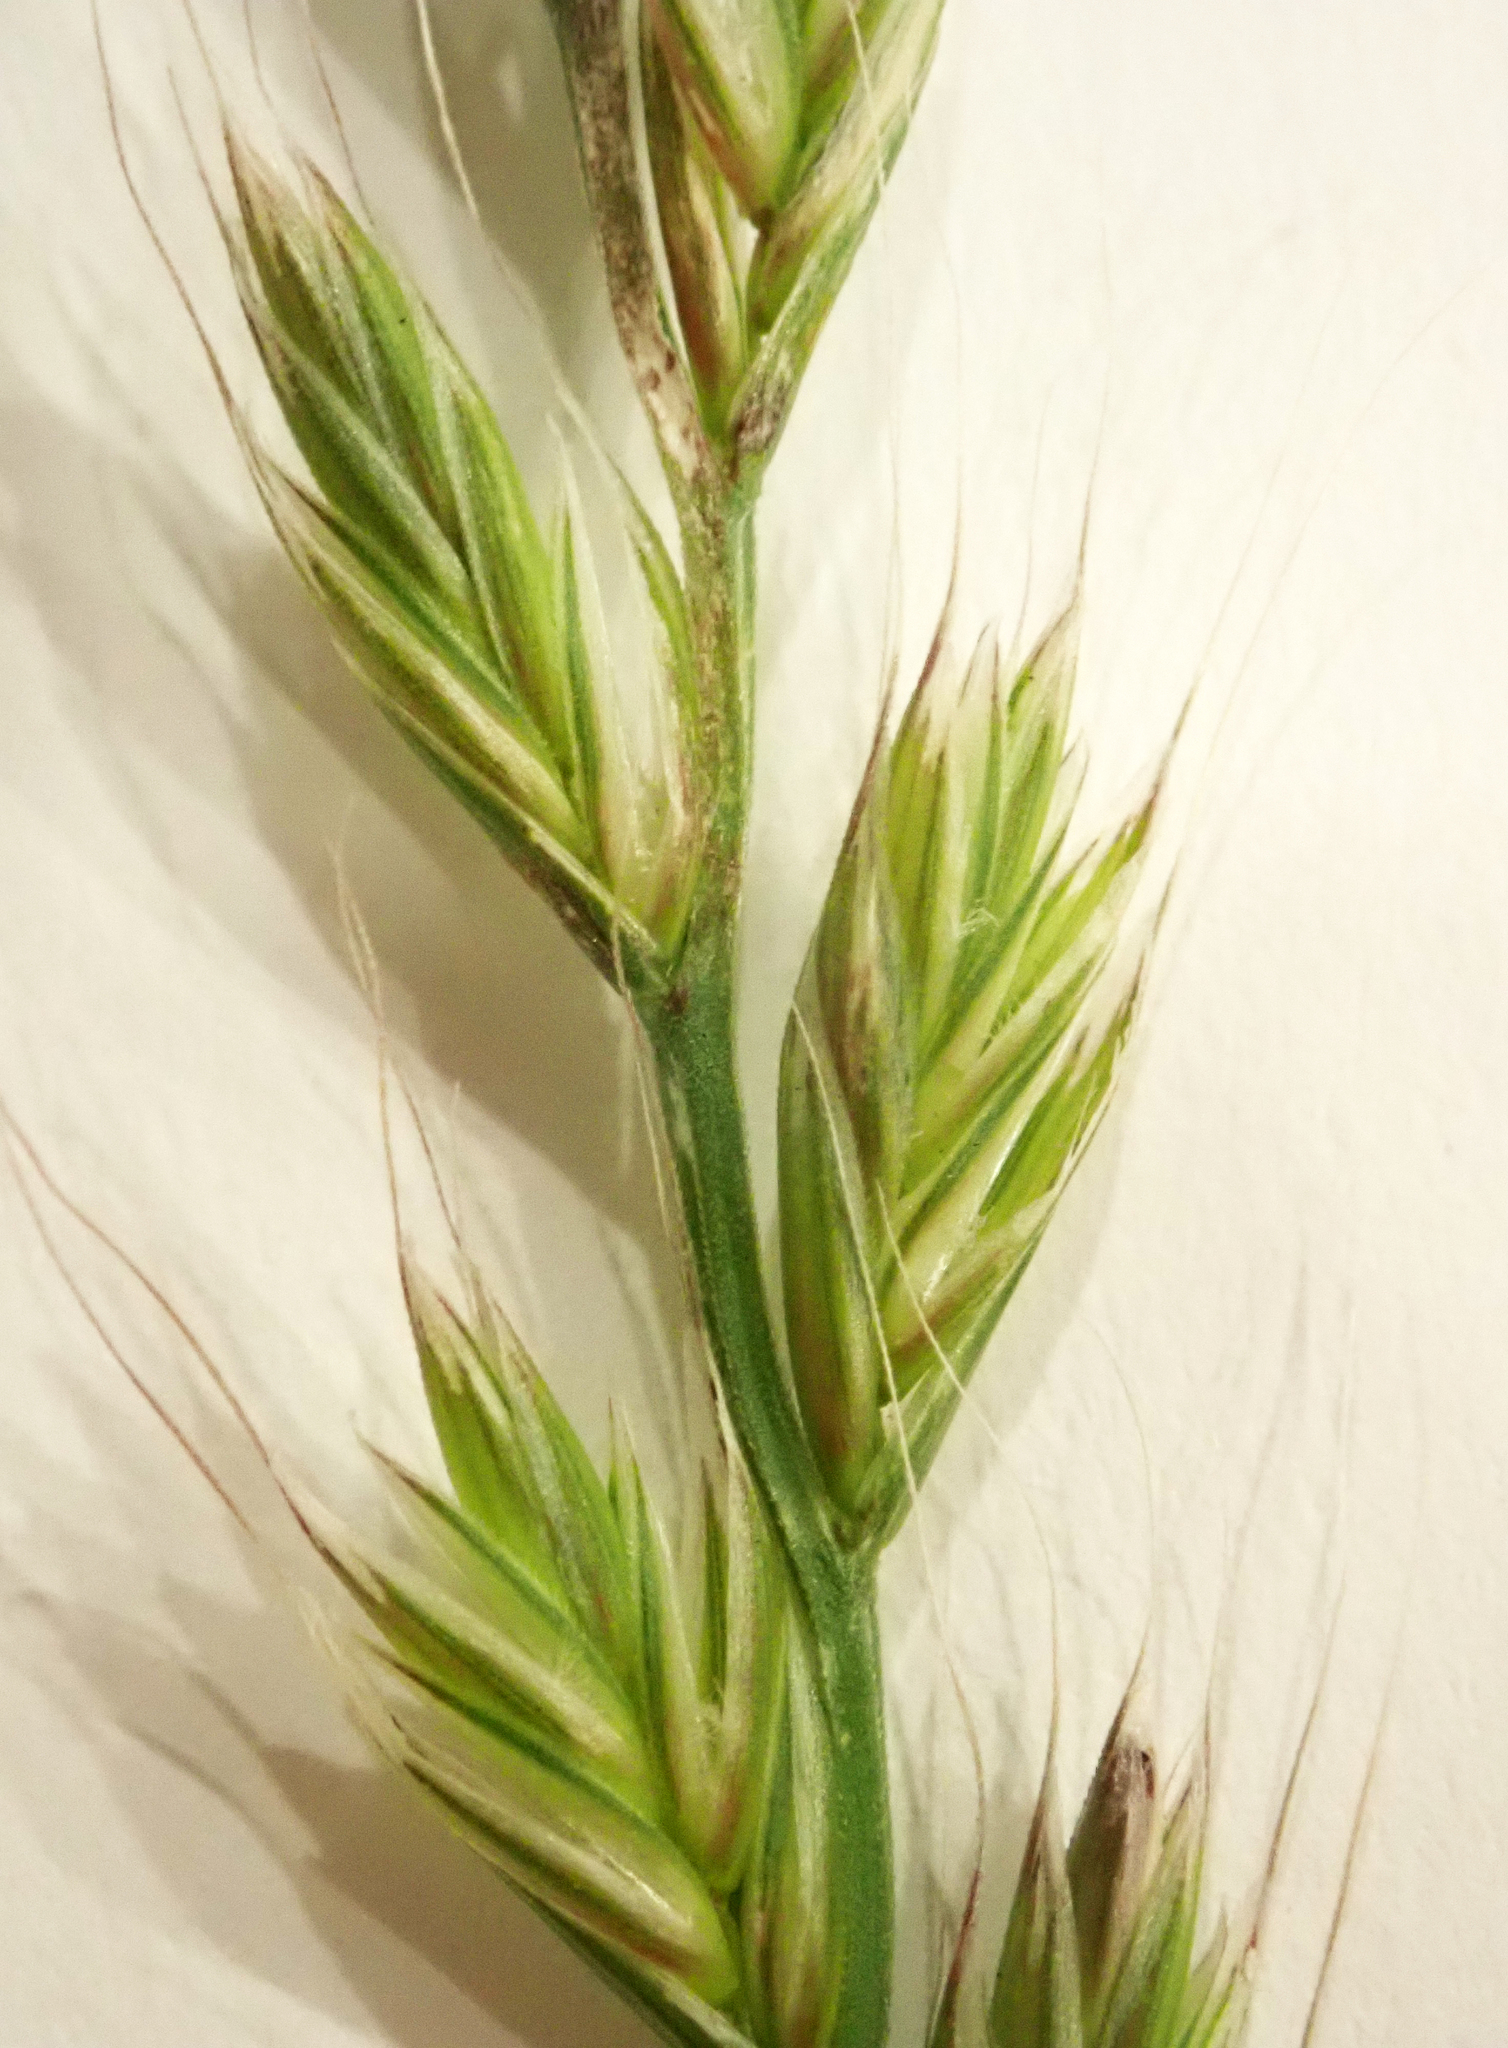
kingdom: Plantae
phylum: Tracheophyta
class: Liliopsida
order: Poales
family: Poaceae
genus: Lolium
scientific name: Lolium multiflorum
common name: Annual ryegrass
